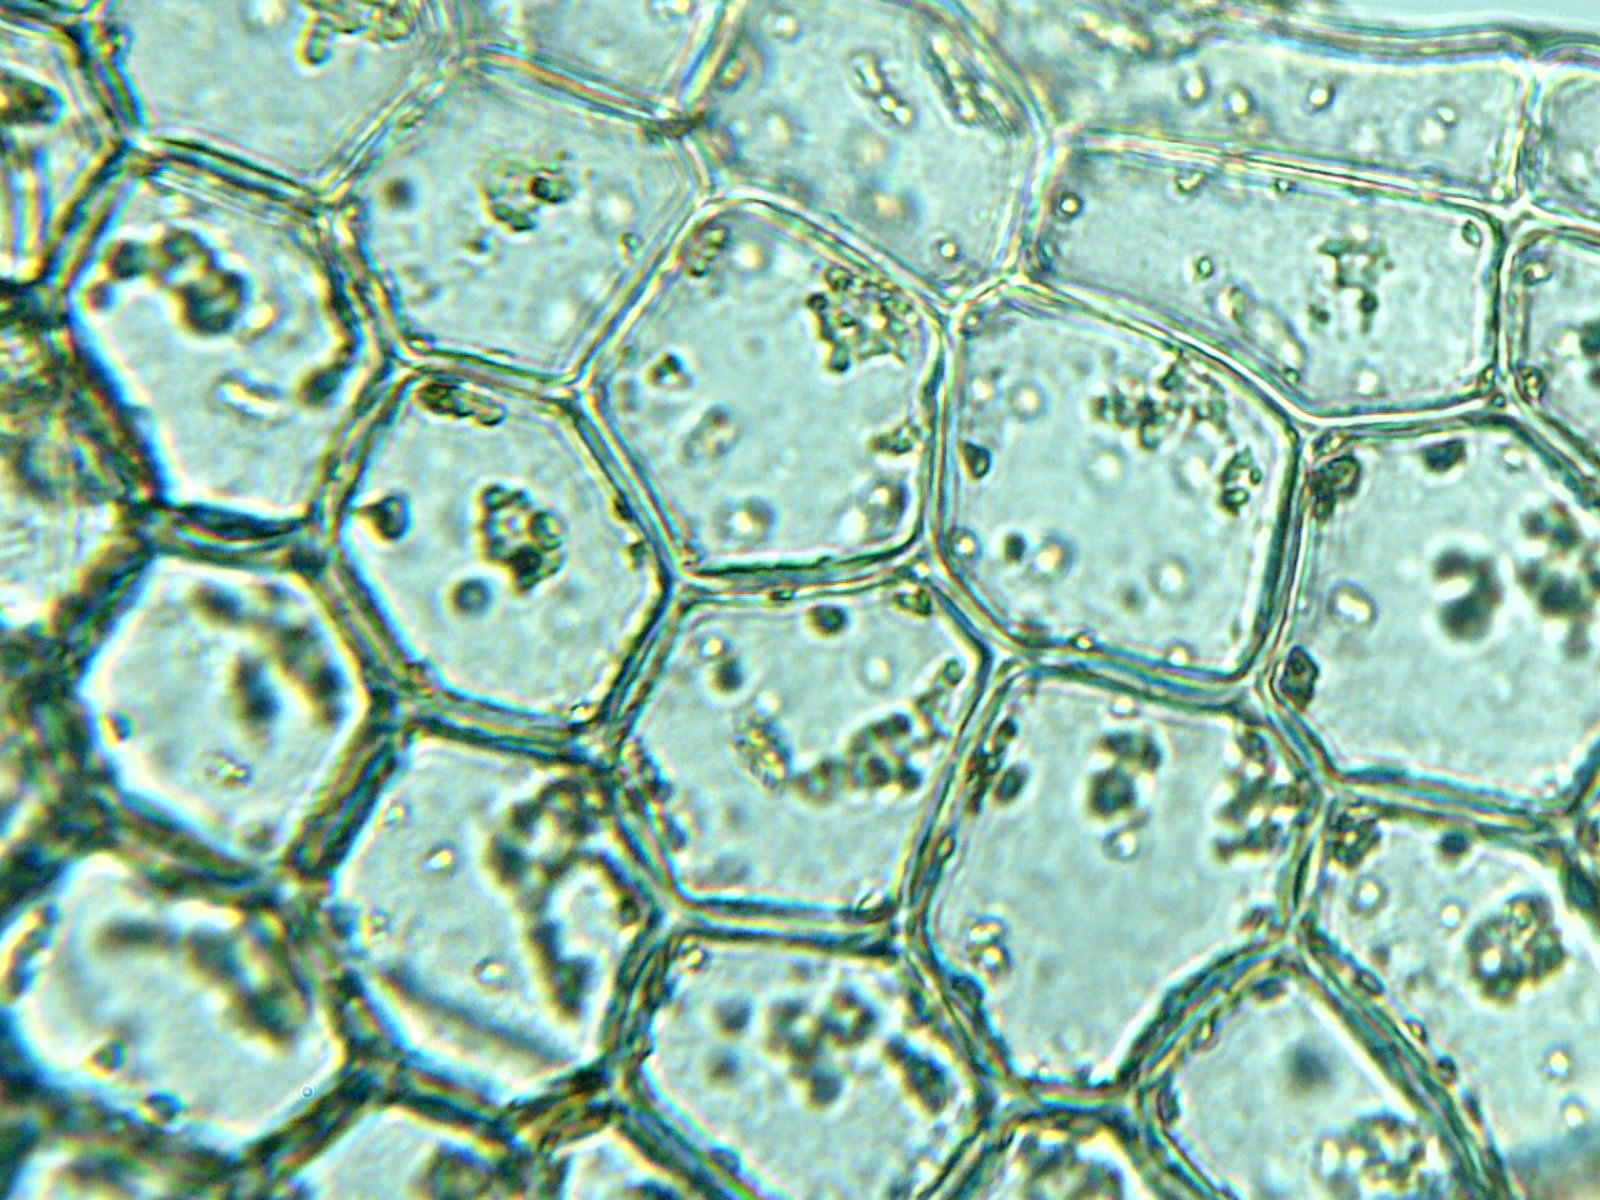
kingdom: Plantae
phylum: Marchantiophyta
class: Jungermanniopsida
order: Jungermanniales
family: Calypogeiaceae
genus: Calypogeia
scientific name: Calypogeia sphagnicola
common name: Bog pouchwort
